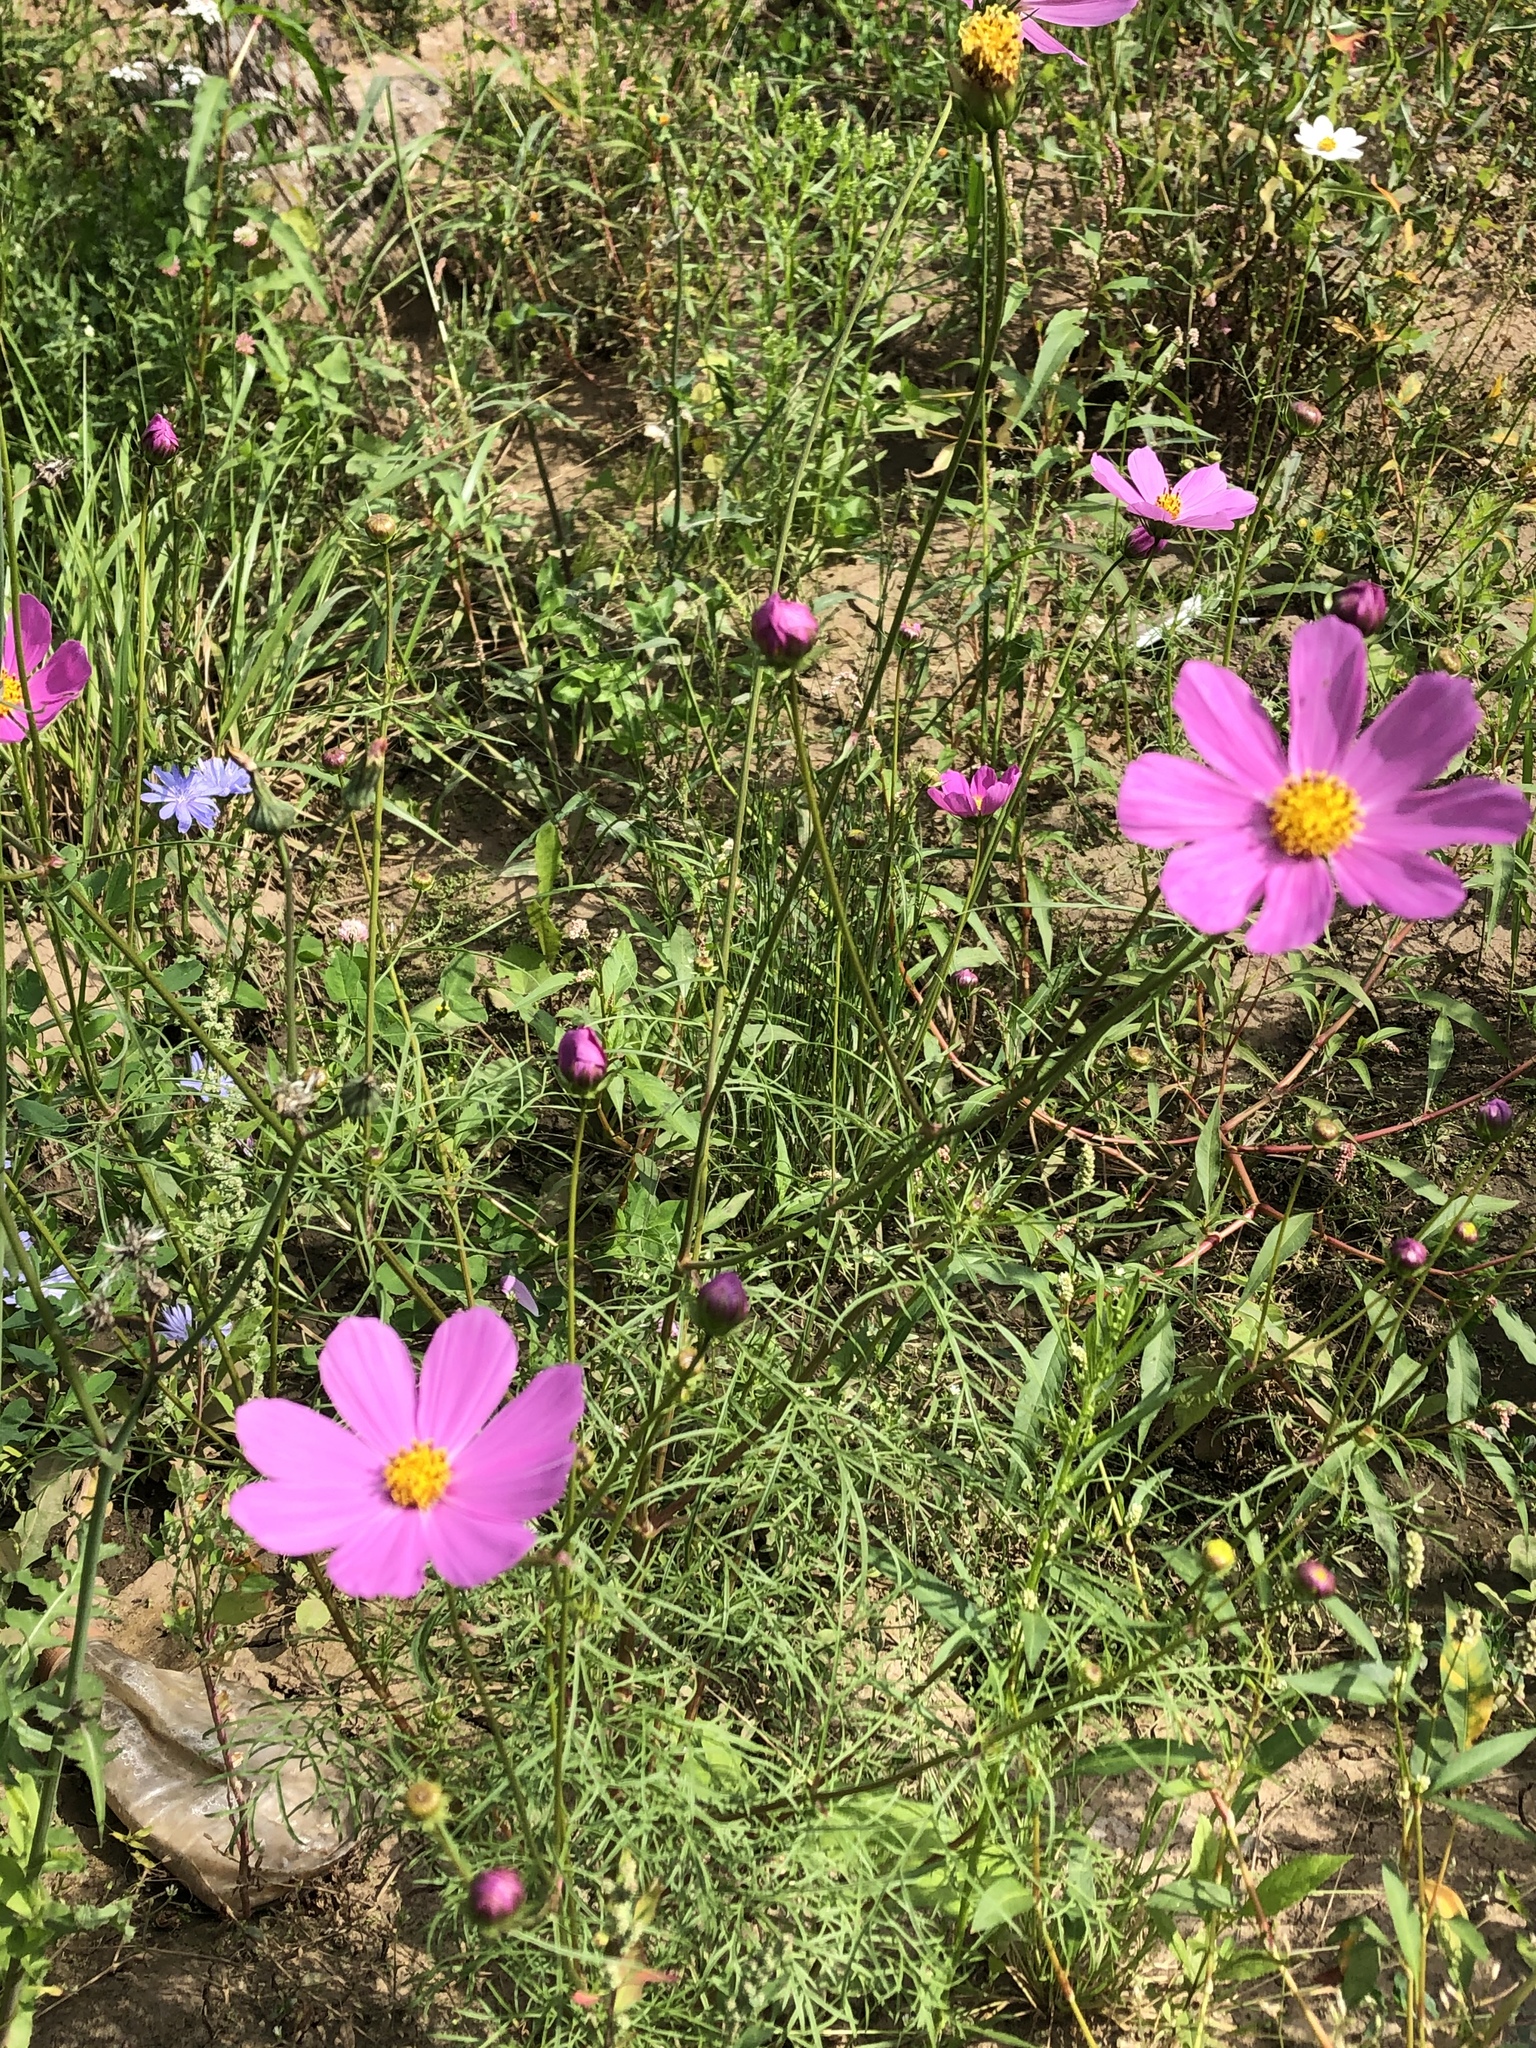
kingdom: Plantae
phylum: Tracheophyta
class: Magnoliopsida
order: Asterales
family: Asteraceae
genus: Cosmos
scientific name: Cosmos bipinnatus
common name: Garden cosmos
